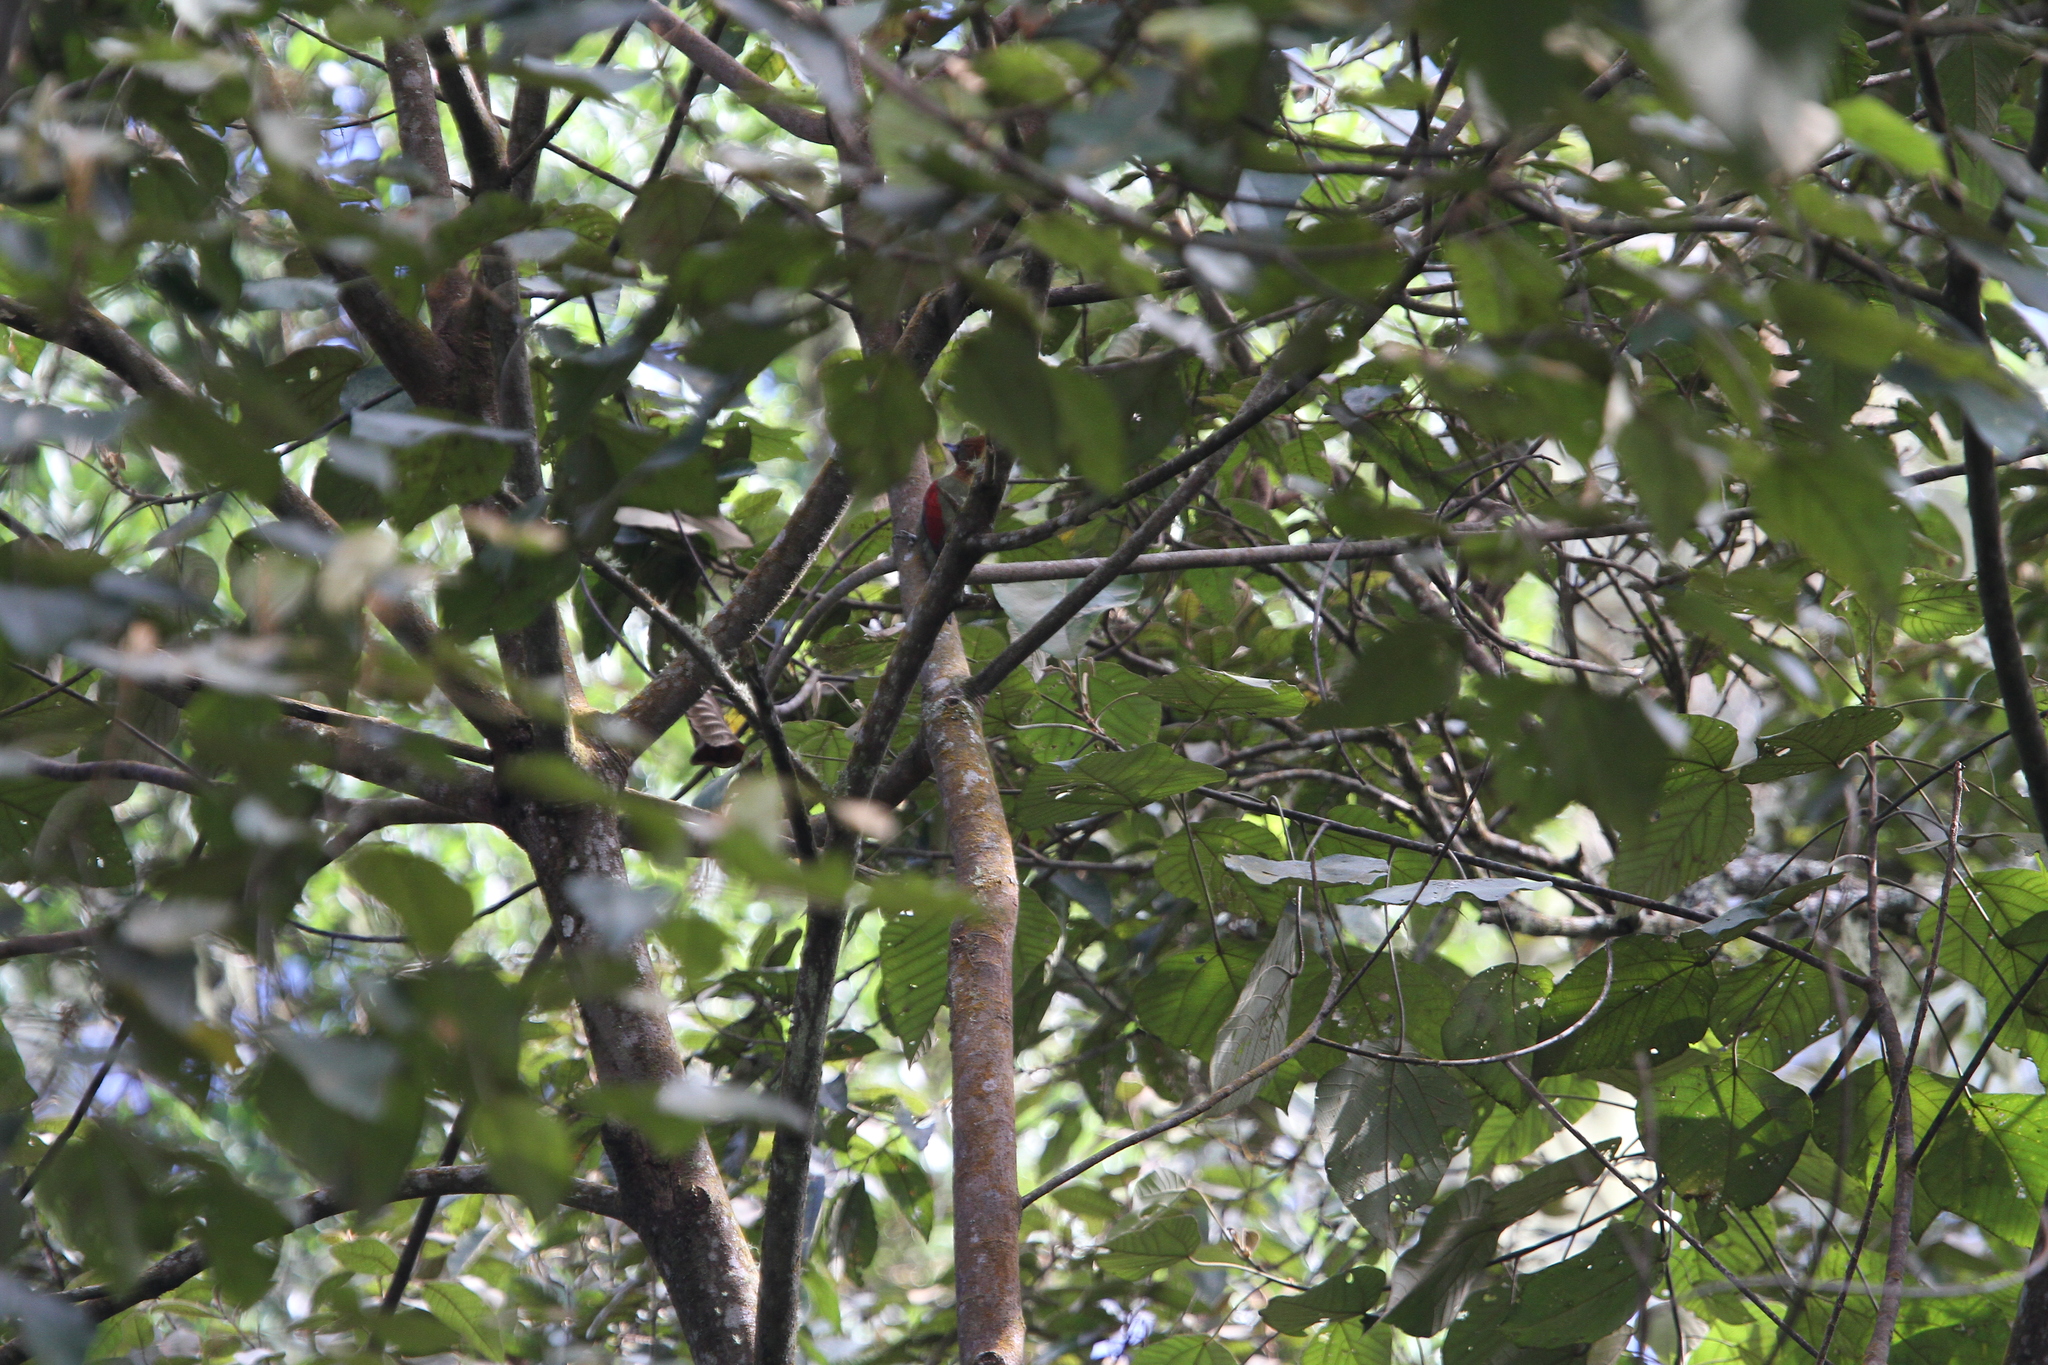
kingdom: Animalia
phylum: Chordata
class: Aves
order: Piciformes
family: Picidae
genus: Picus
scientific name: Picus puniceus
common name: Crimson-winged woodpecker
